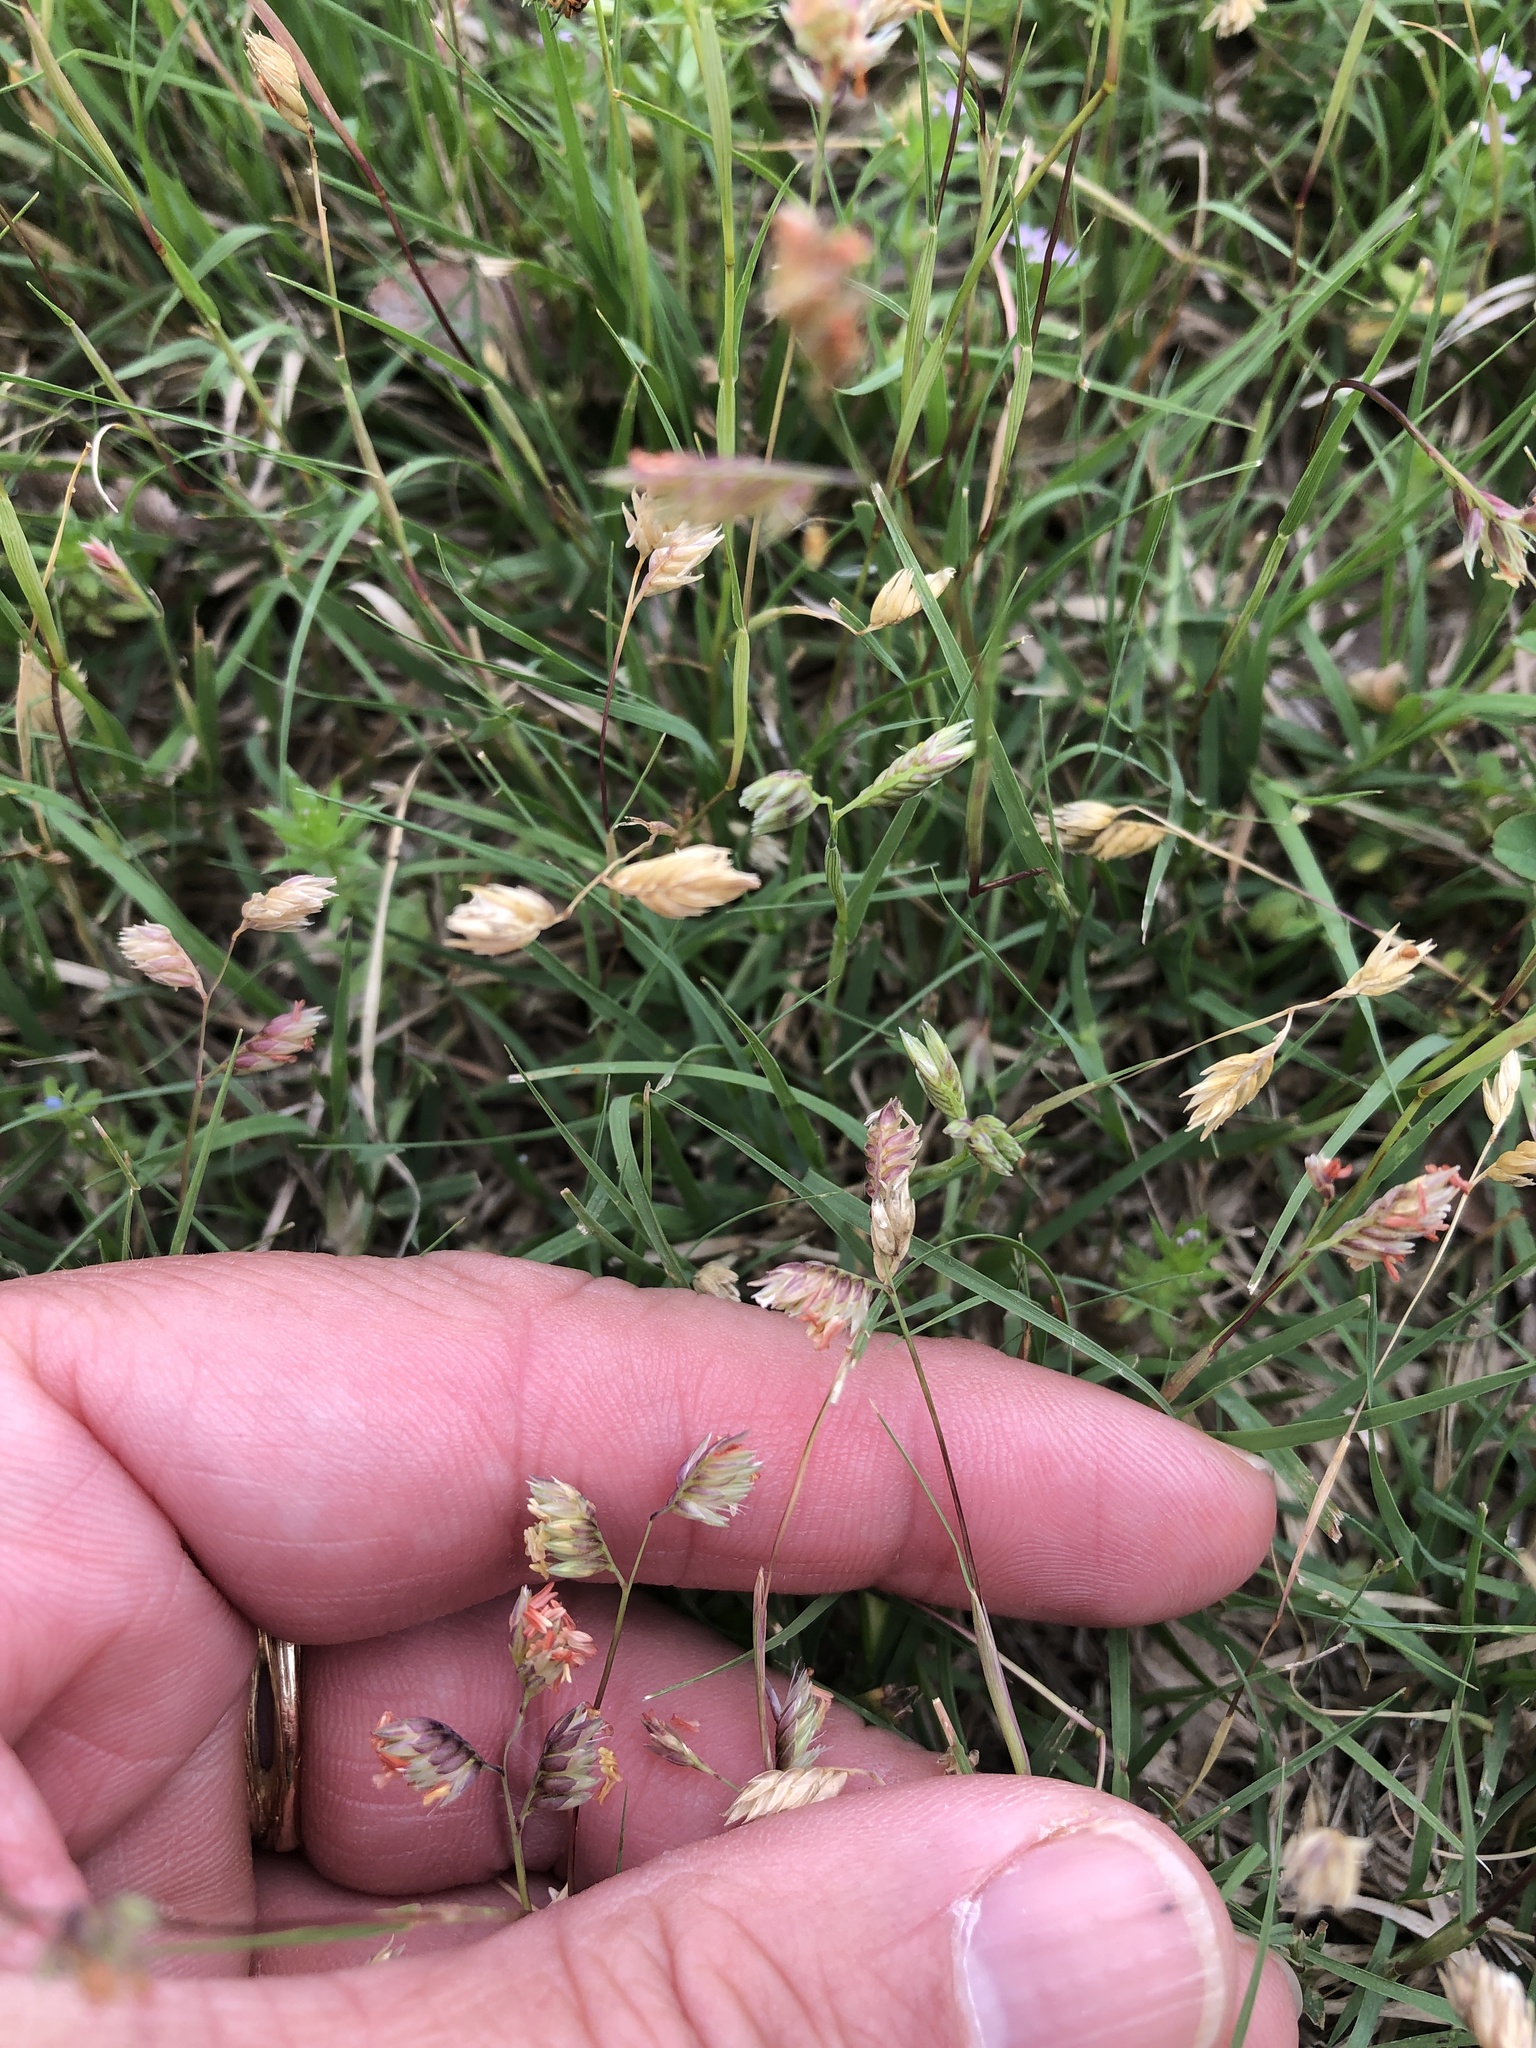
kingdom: Plantae
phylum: Tracheophyta
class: Liliopsida
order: Poales
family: Poaceae
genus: Bouteloua
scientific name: Bouteloua dactyloides
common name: Buffalo grass
